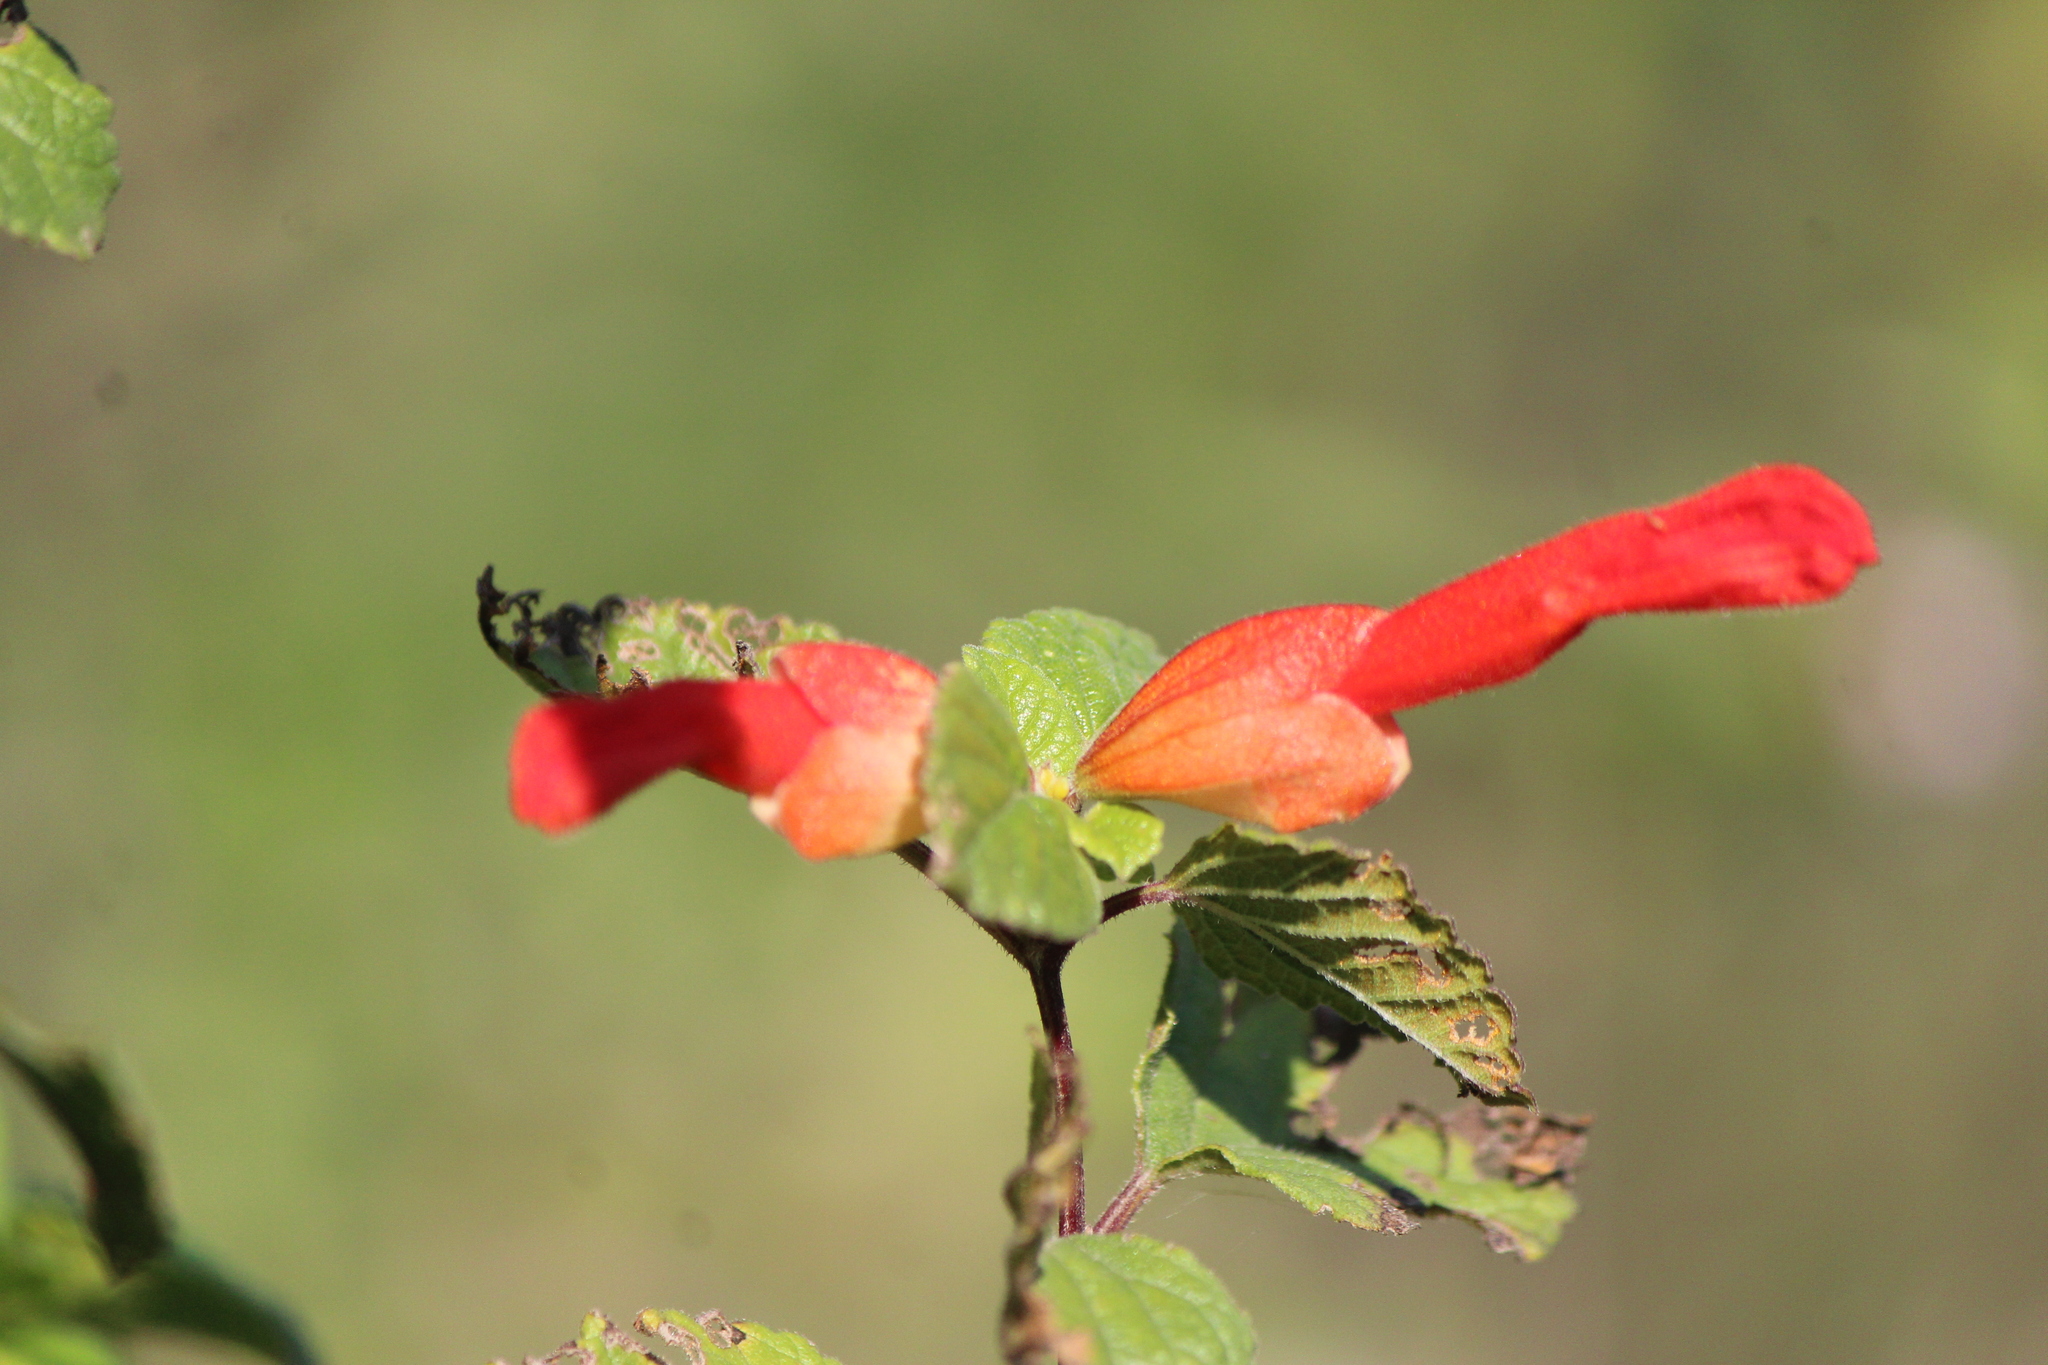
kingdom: Plantae
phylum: Tracheophyta
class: Magnoliopsida
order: Lamiales
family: Lamiaceae
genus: Salvia
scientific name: Salvia regla
